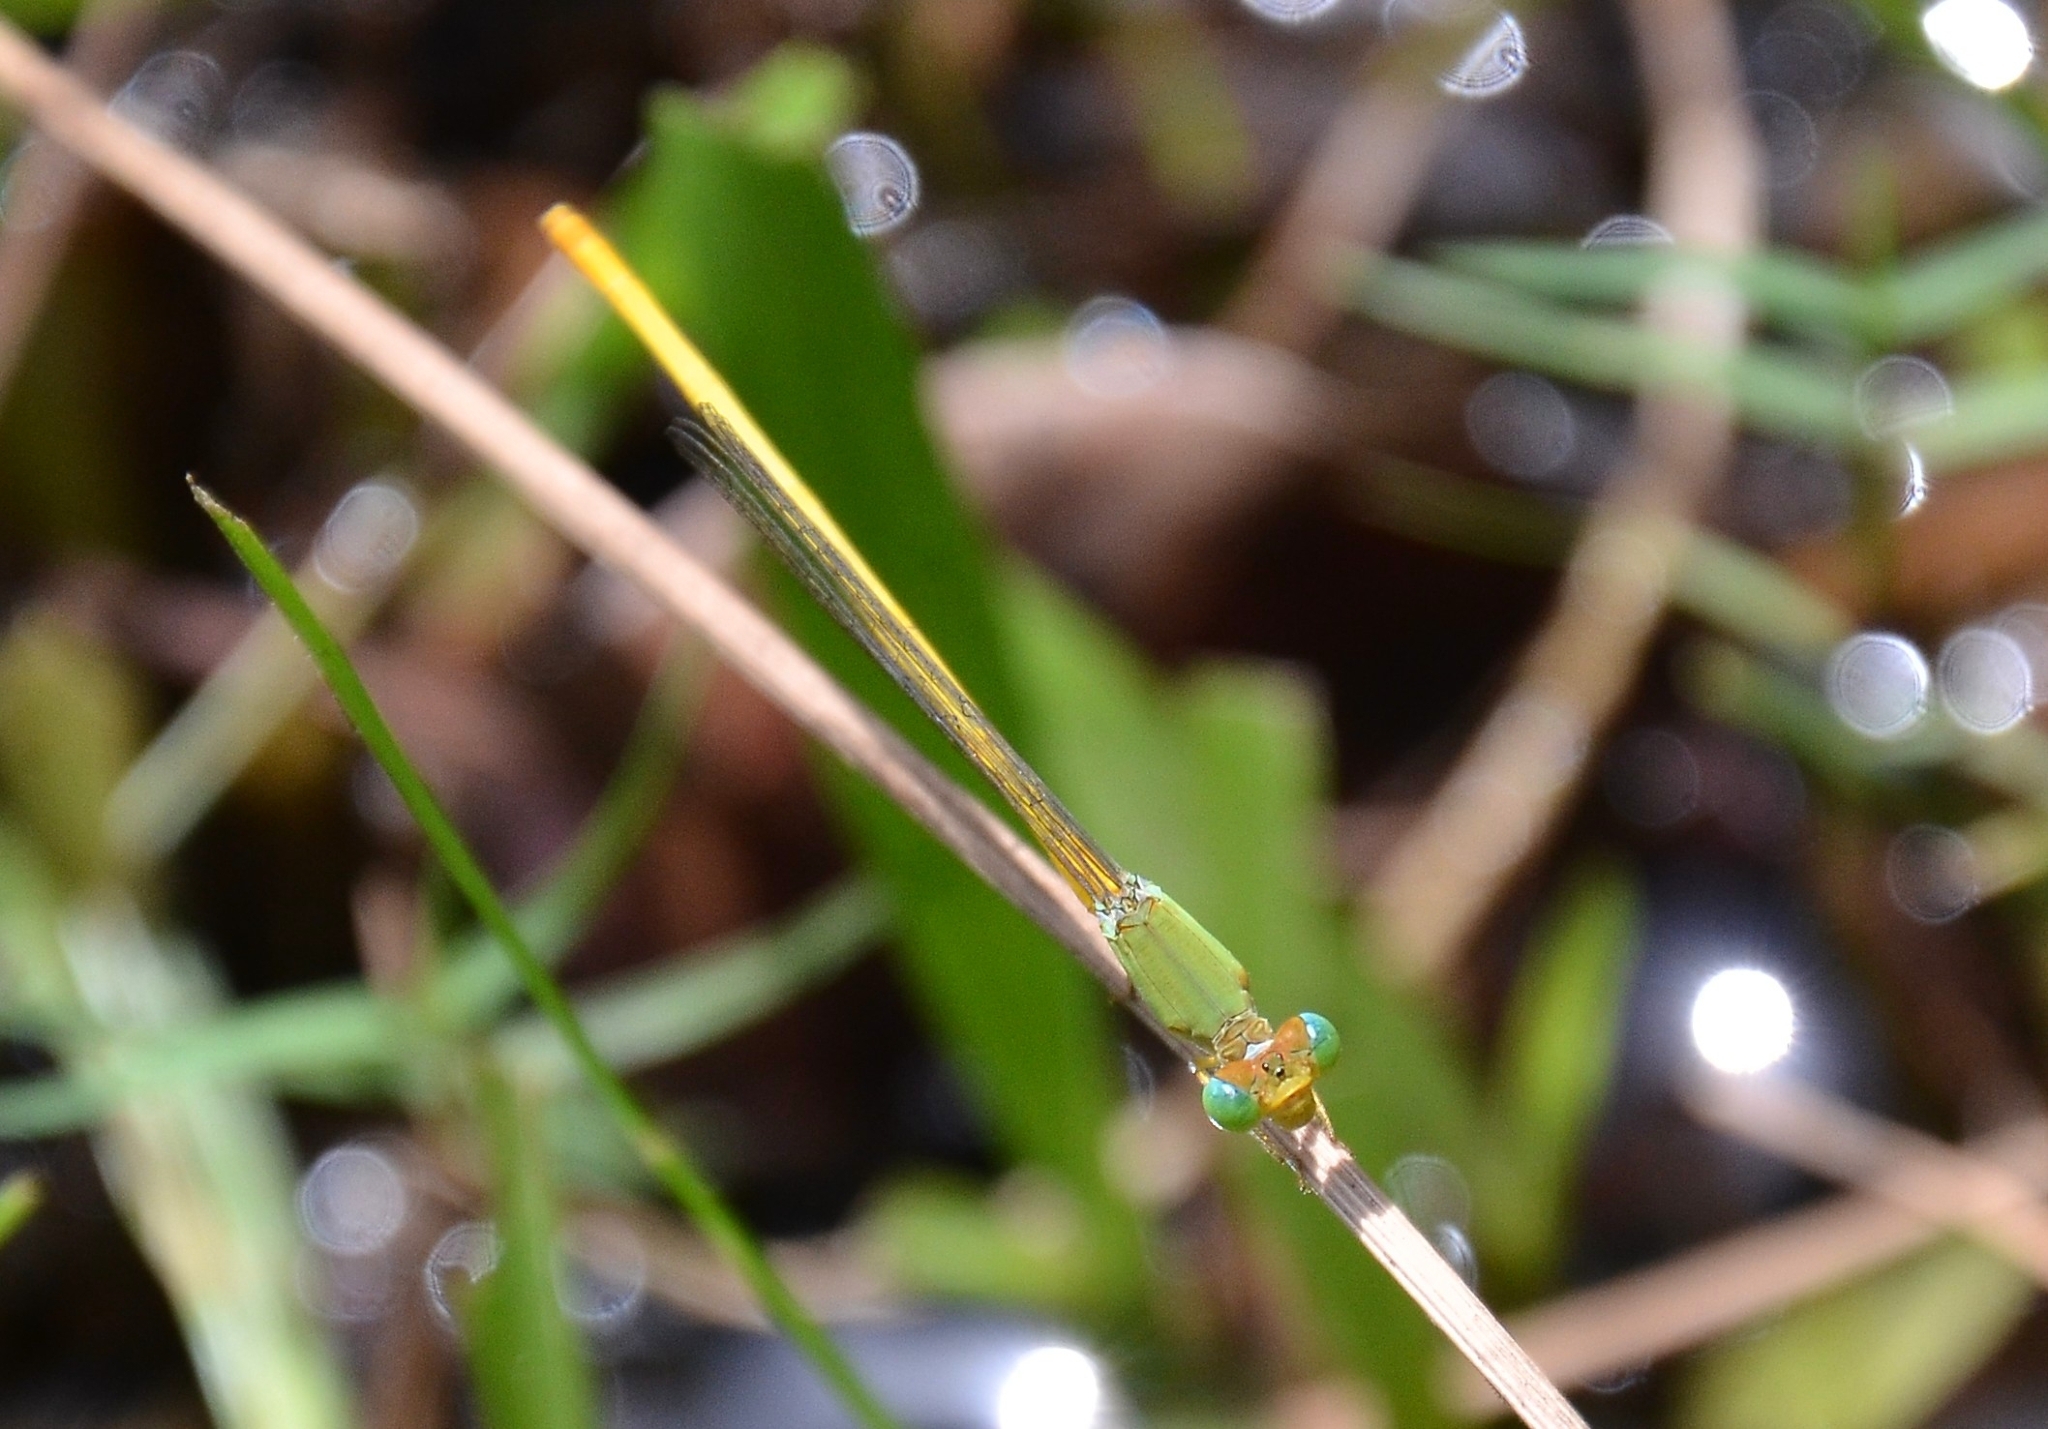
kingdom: Animalia
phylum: Arthropoda
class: Insecta
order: Odonata
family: Coenagrionidae
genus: Ceriagrion
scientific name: Ceriagrion coromandelianum
